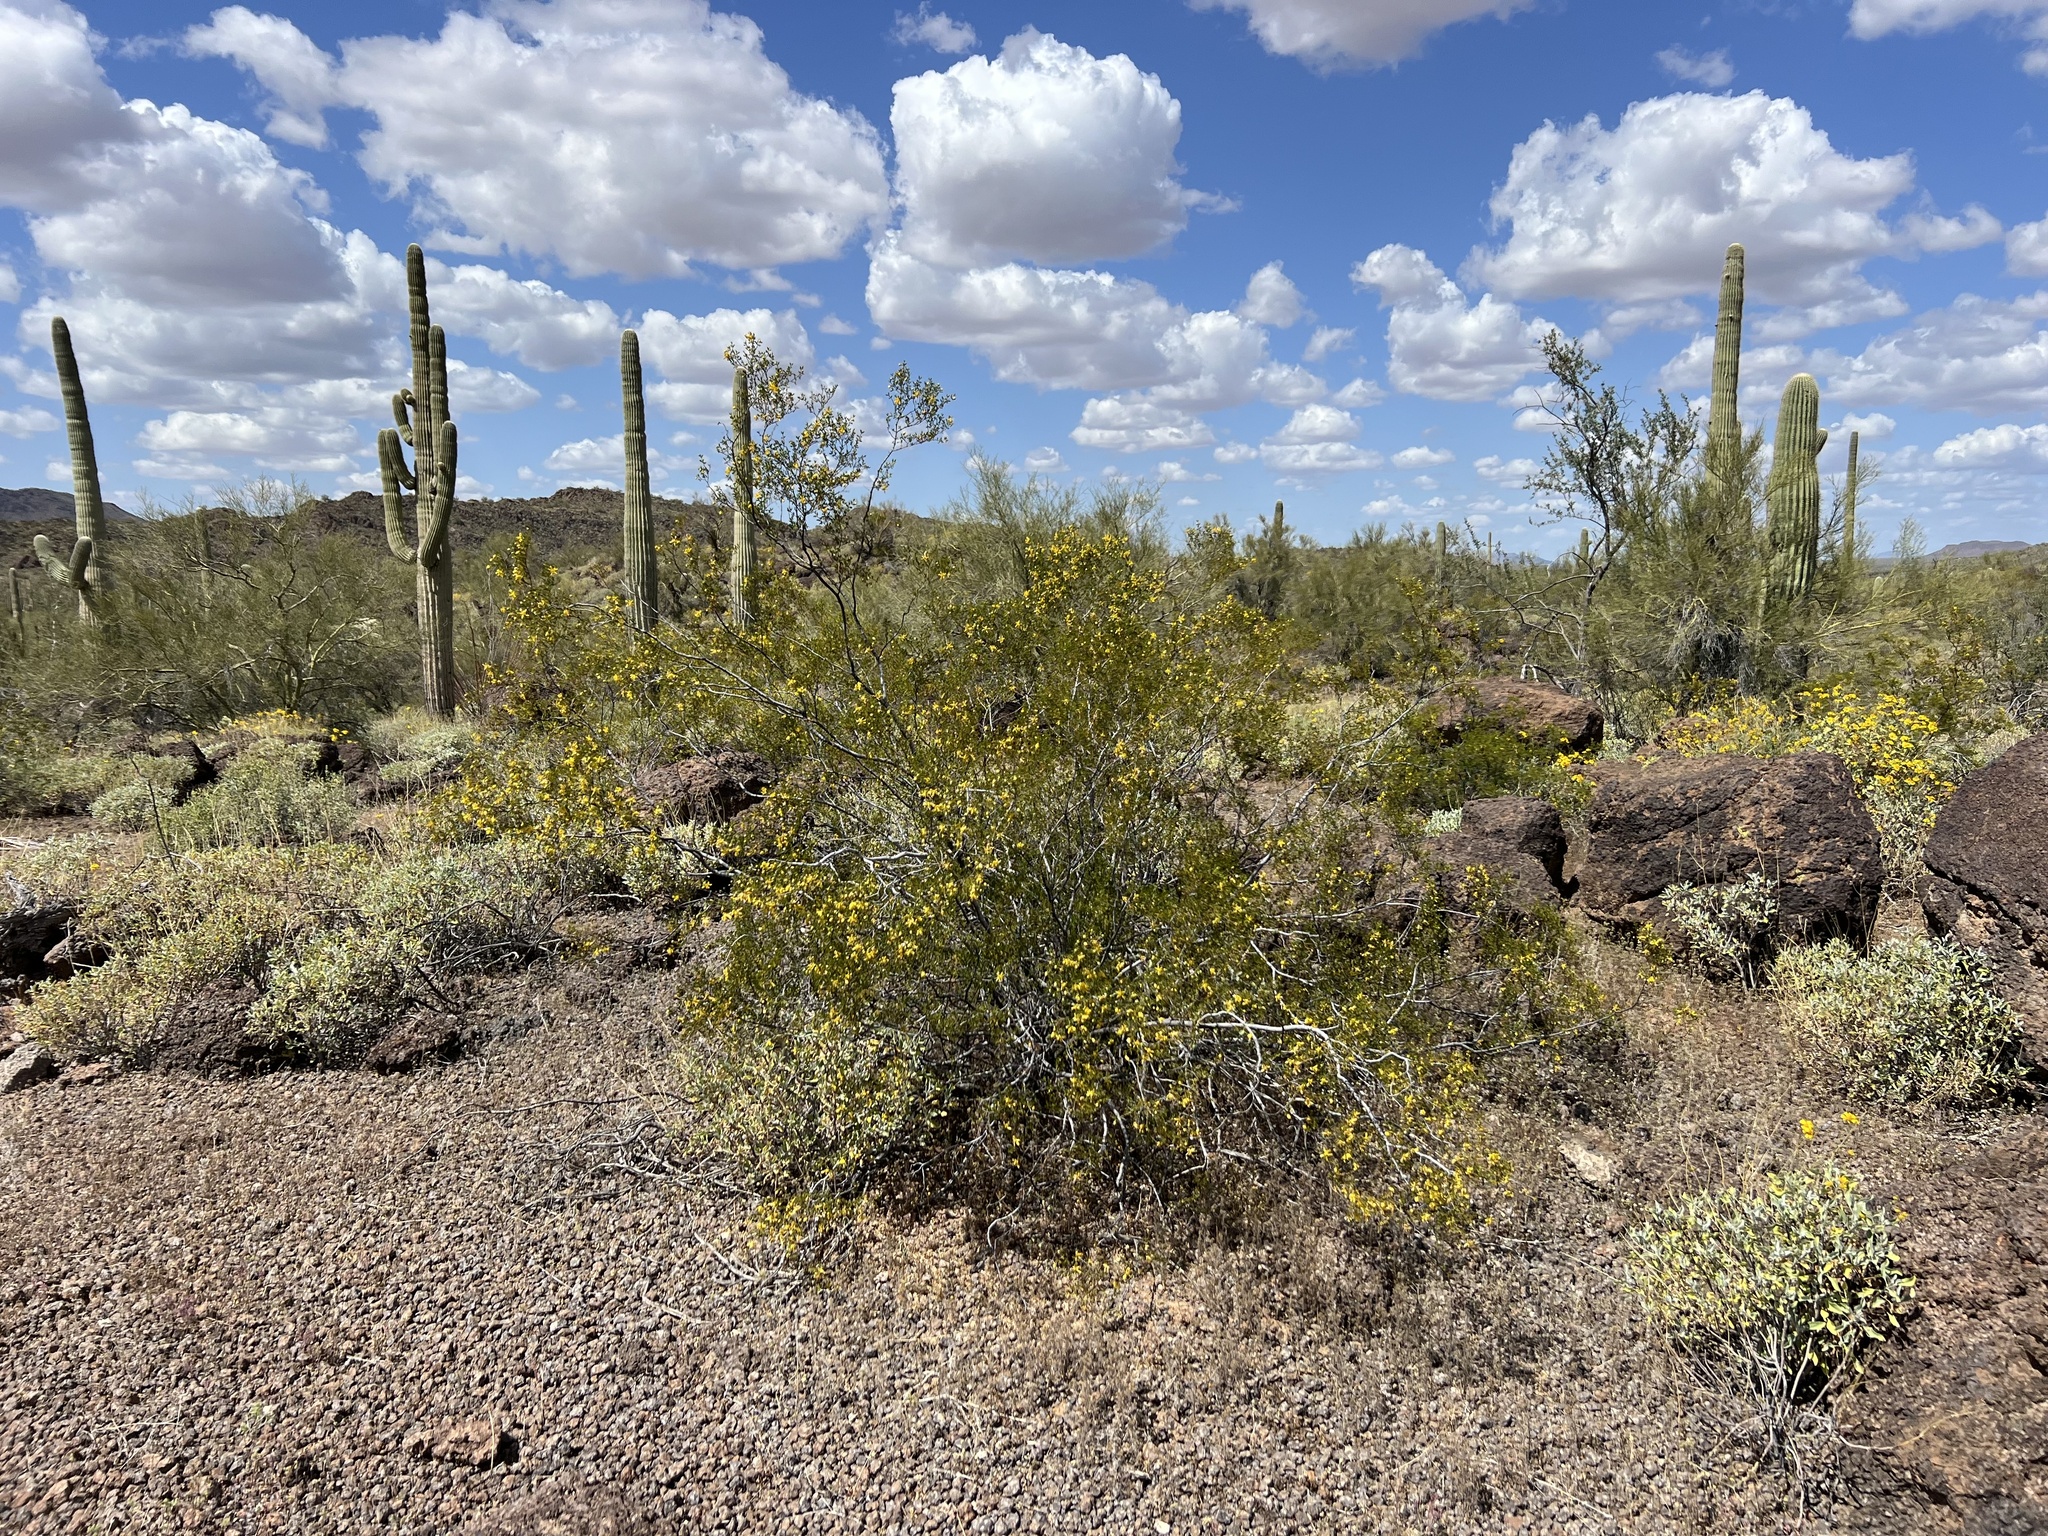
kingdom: Plantae
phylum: Tracheophyta
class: Magnoliopsida
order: Zygophyllales
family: Zygophyllaceae
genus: Larrea
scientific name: Larrea tridentata
